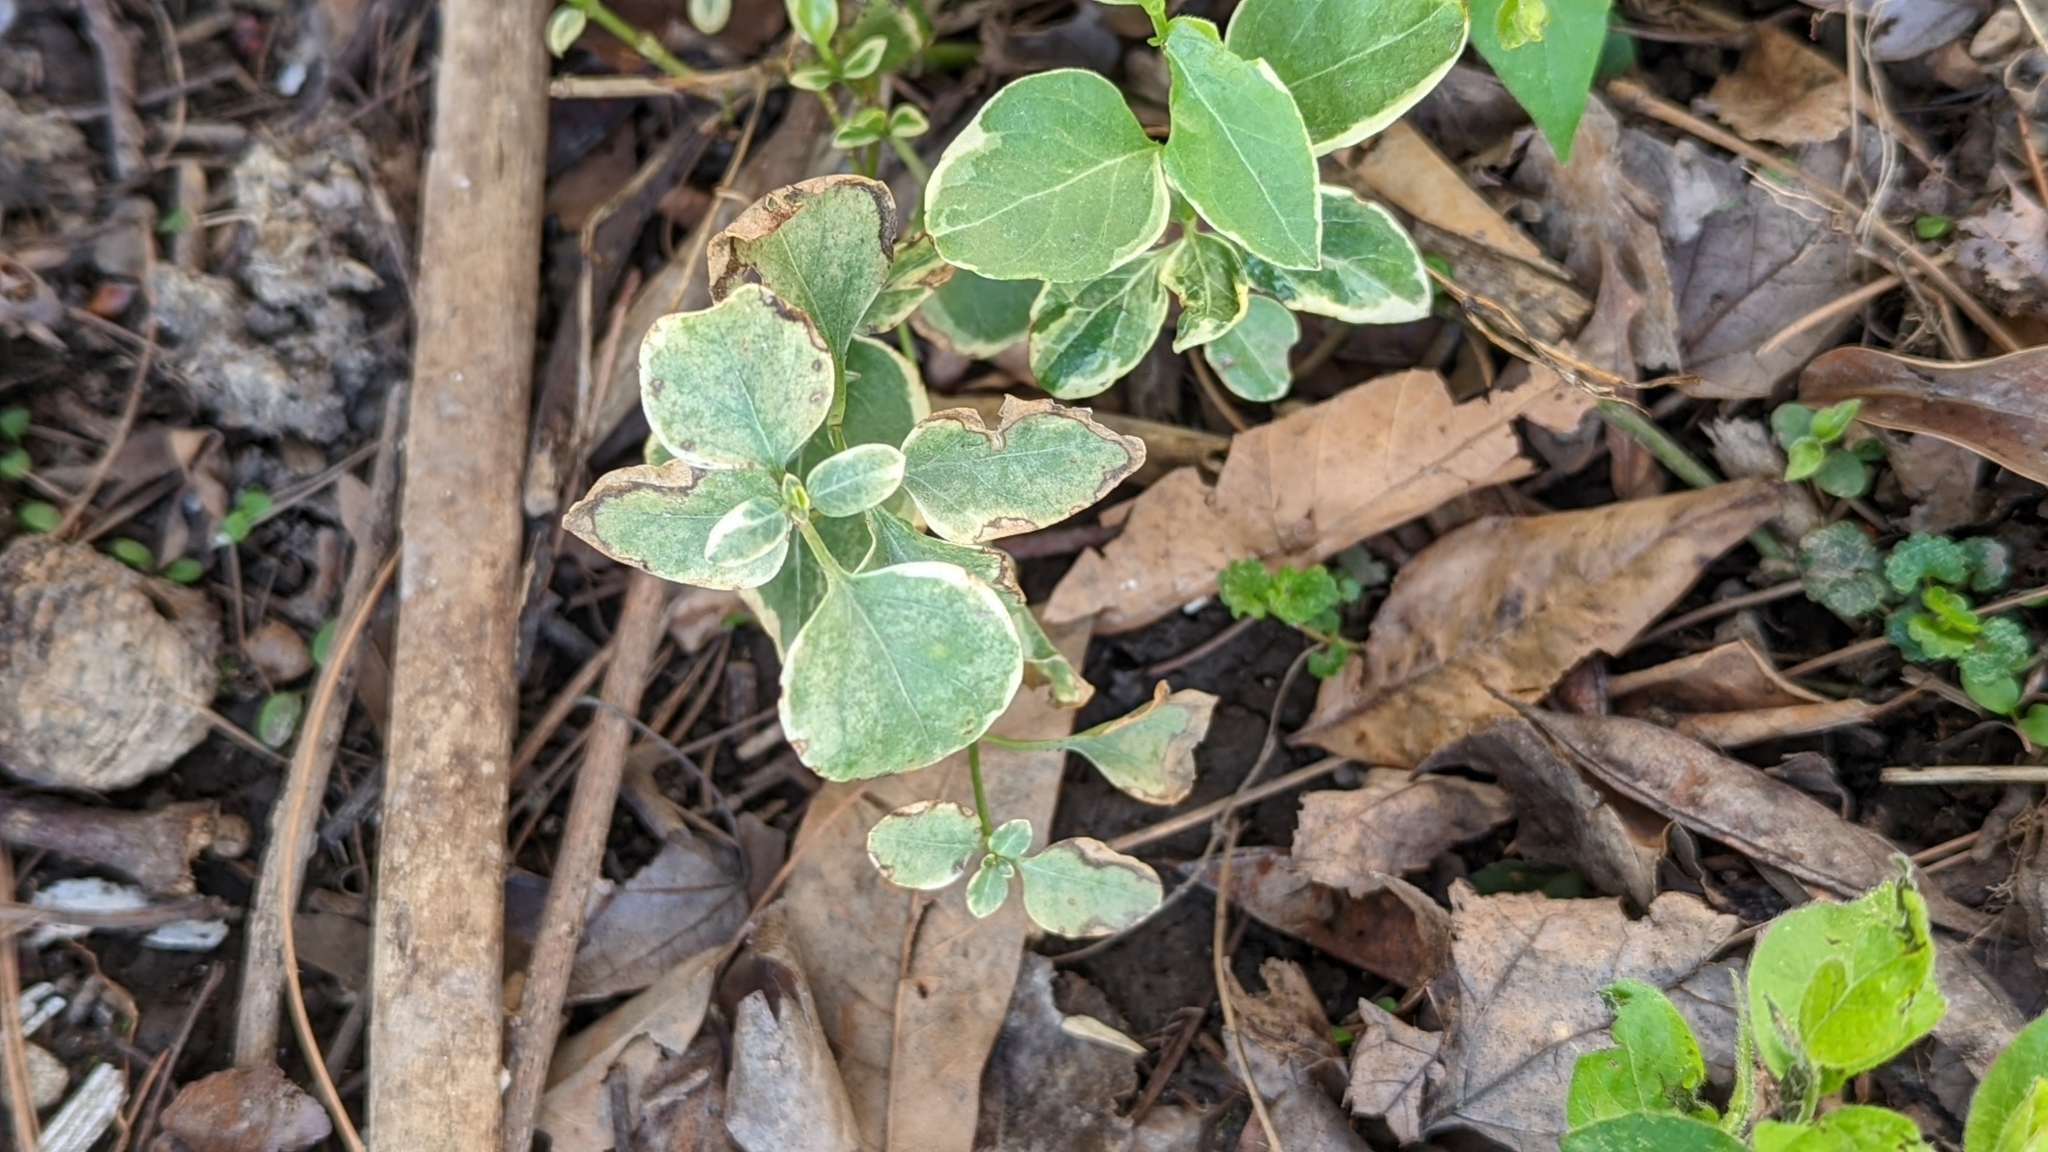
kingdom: Plantae
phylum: Tracheophyta
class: Magnoliopsida
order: Gentianales
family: Apocynaceae
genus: Vinca
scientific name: Vinca major
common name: Greater periwinkle
